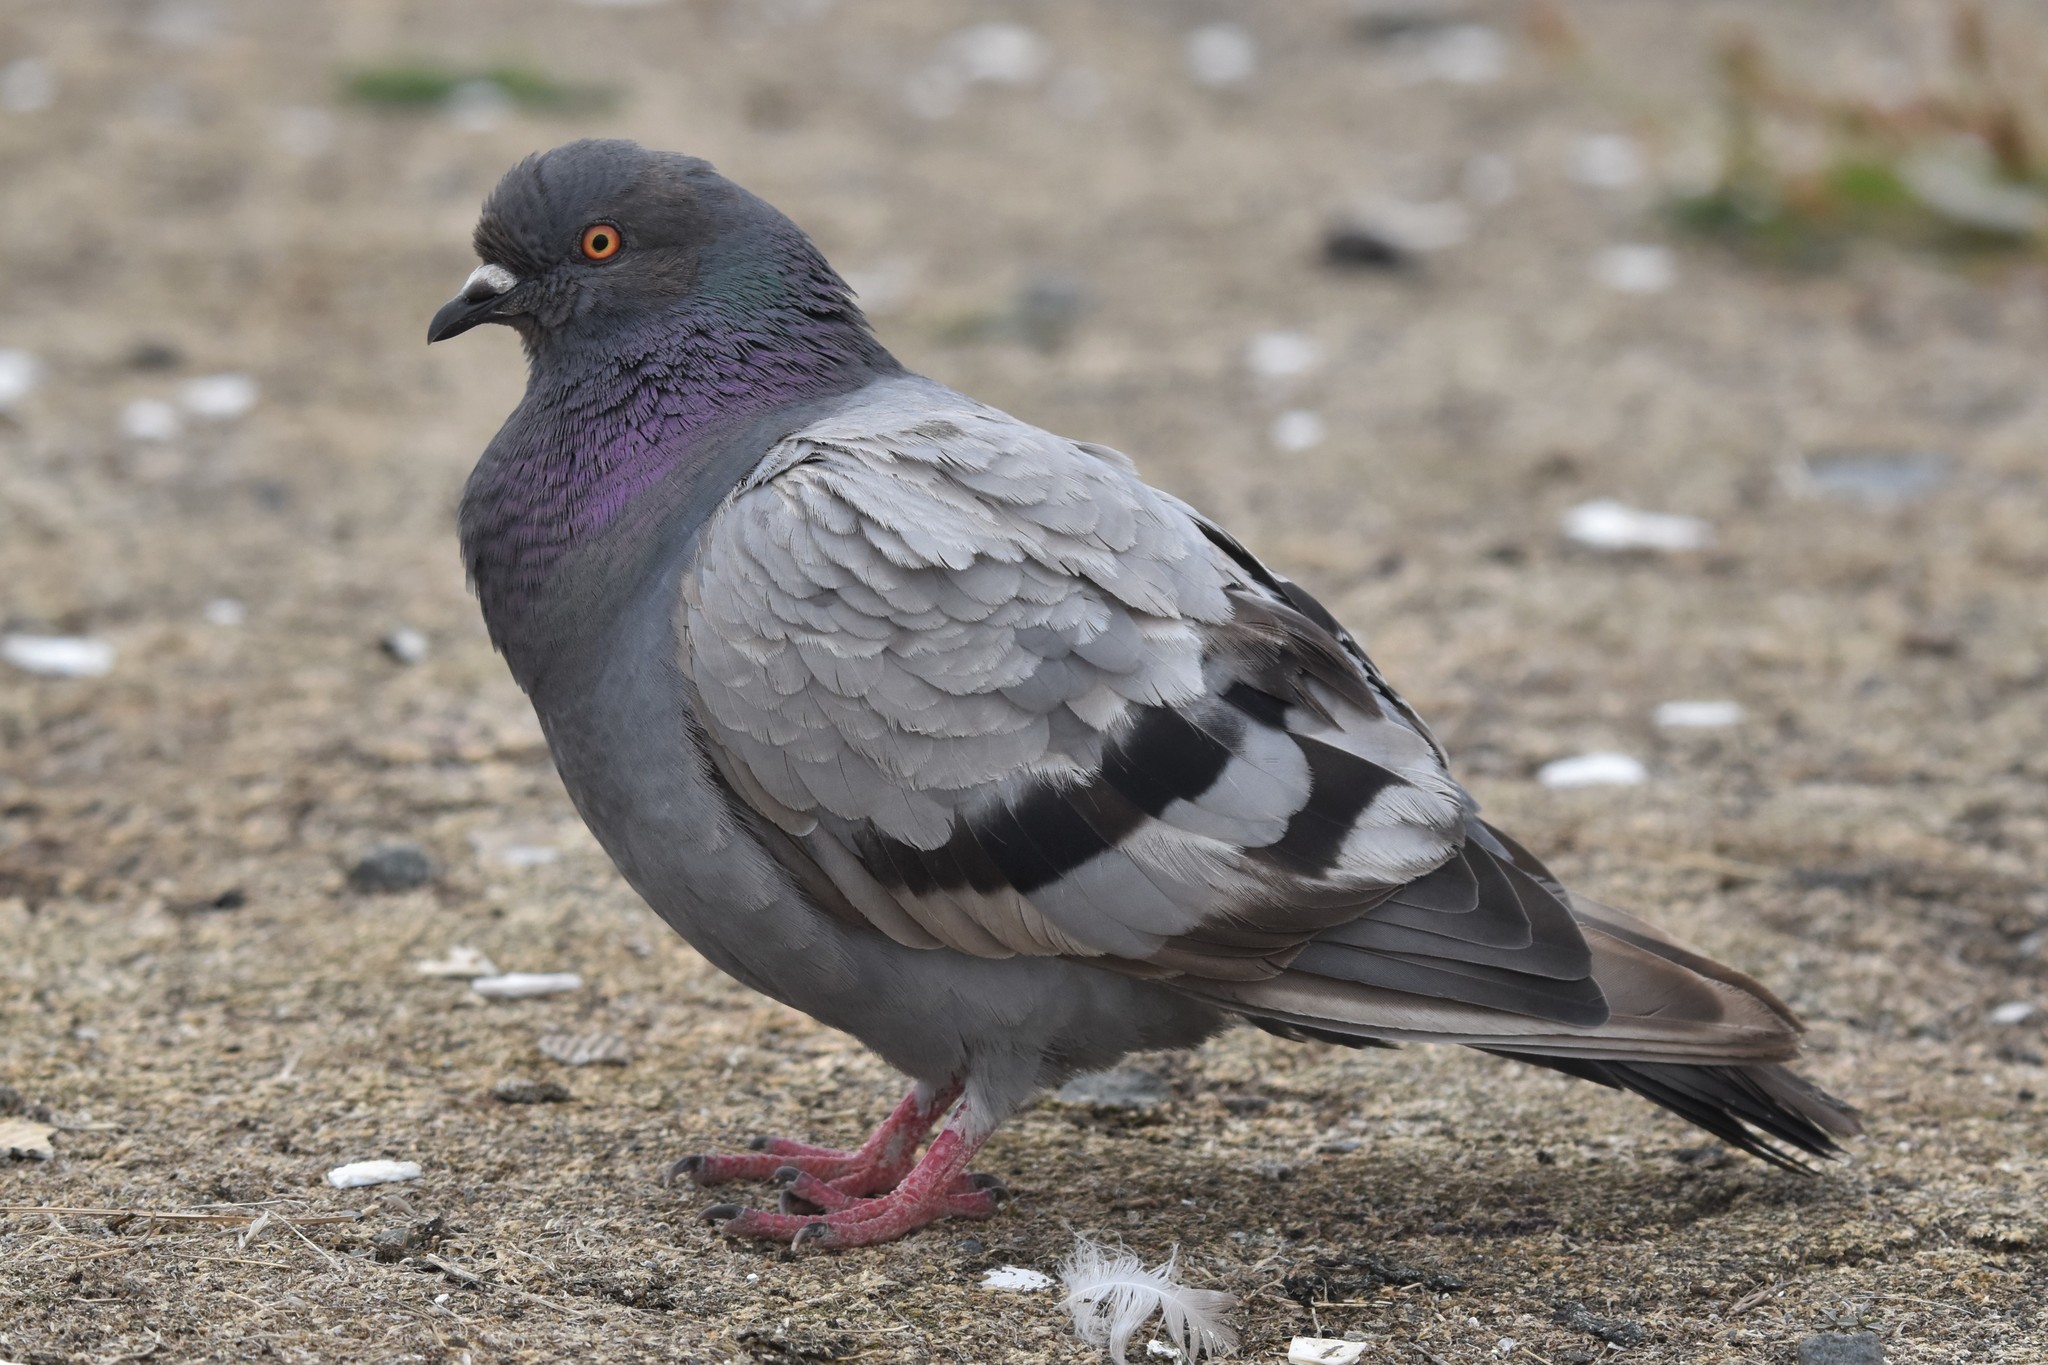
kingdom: Animalia
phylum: Chordata
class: Aves
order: Columbiformes
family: Columbidae
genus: Columba
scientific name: Columba livia
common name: Rock pigeon
